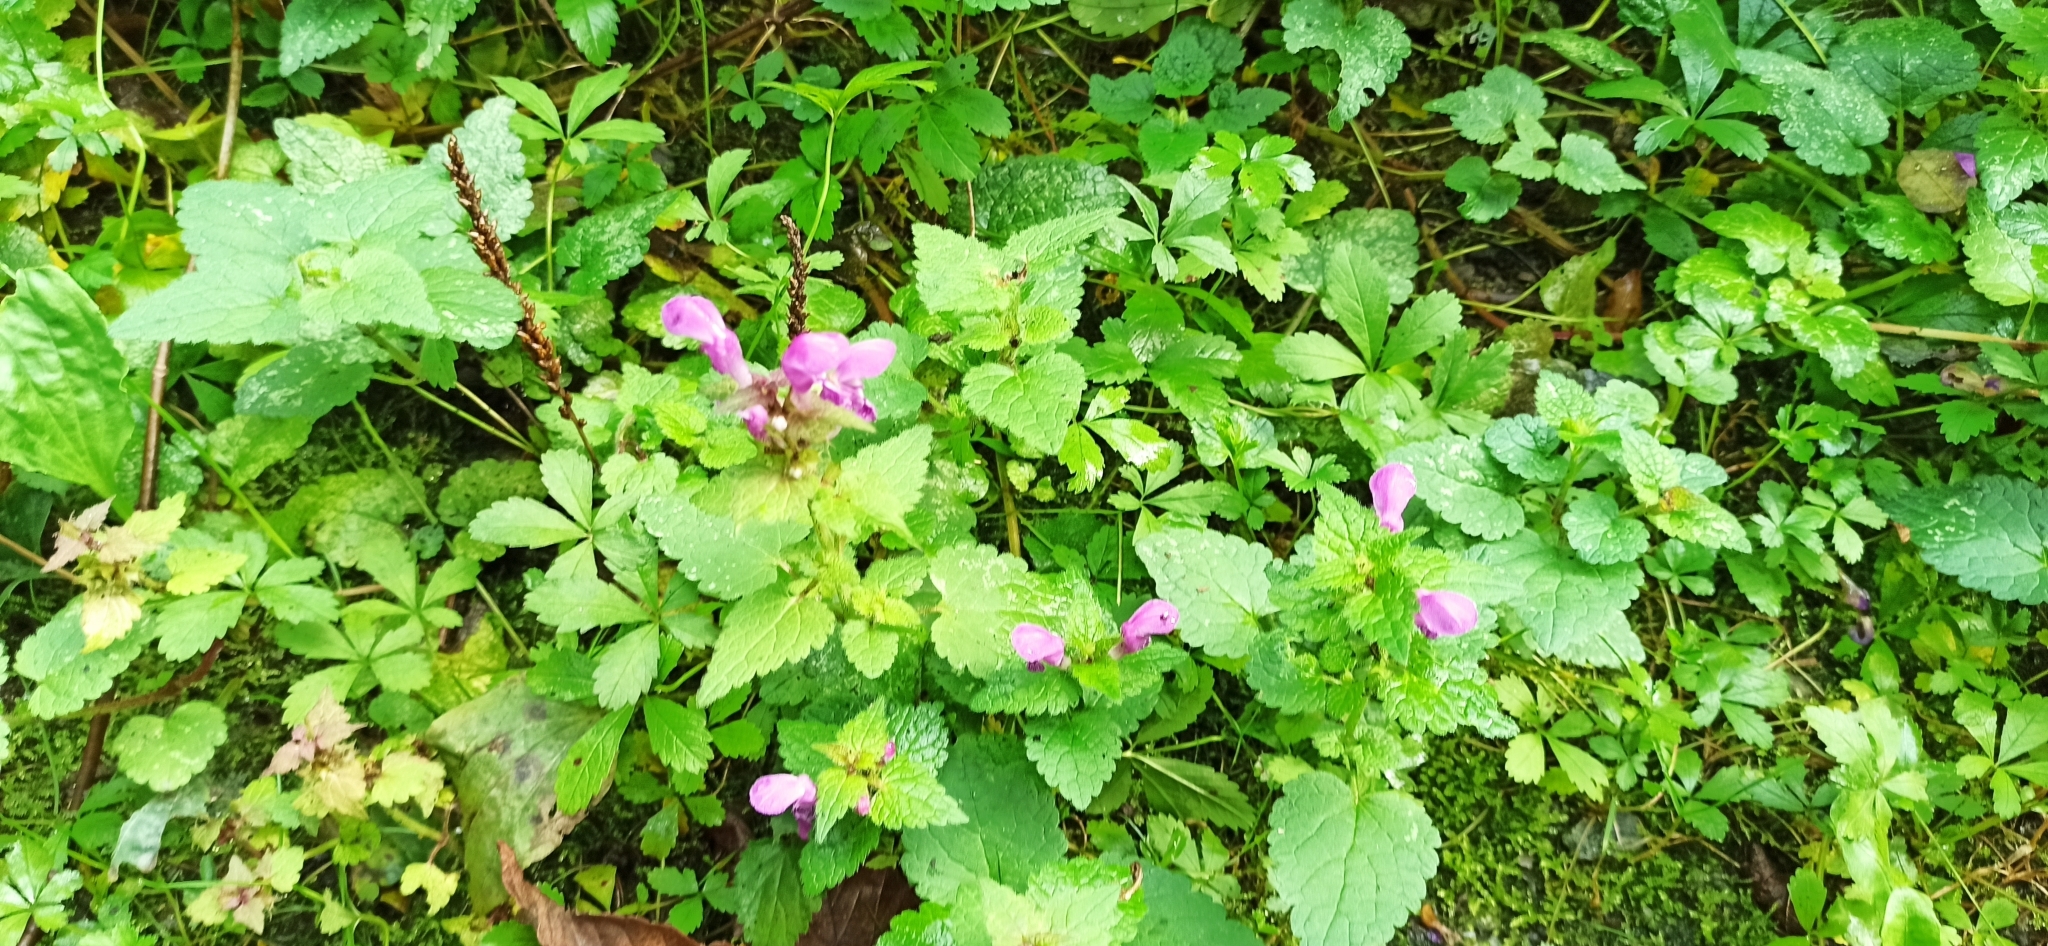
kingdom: Plantae
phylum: Tracheophyta
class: Magnoliopsida
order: Lamiales
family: Lamiaceae
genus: Lamium
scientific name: Lamium maculatum
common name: Spotted dead-nettle
